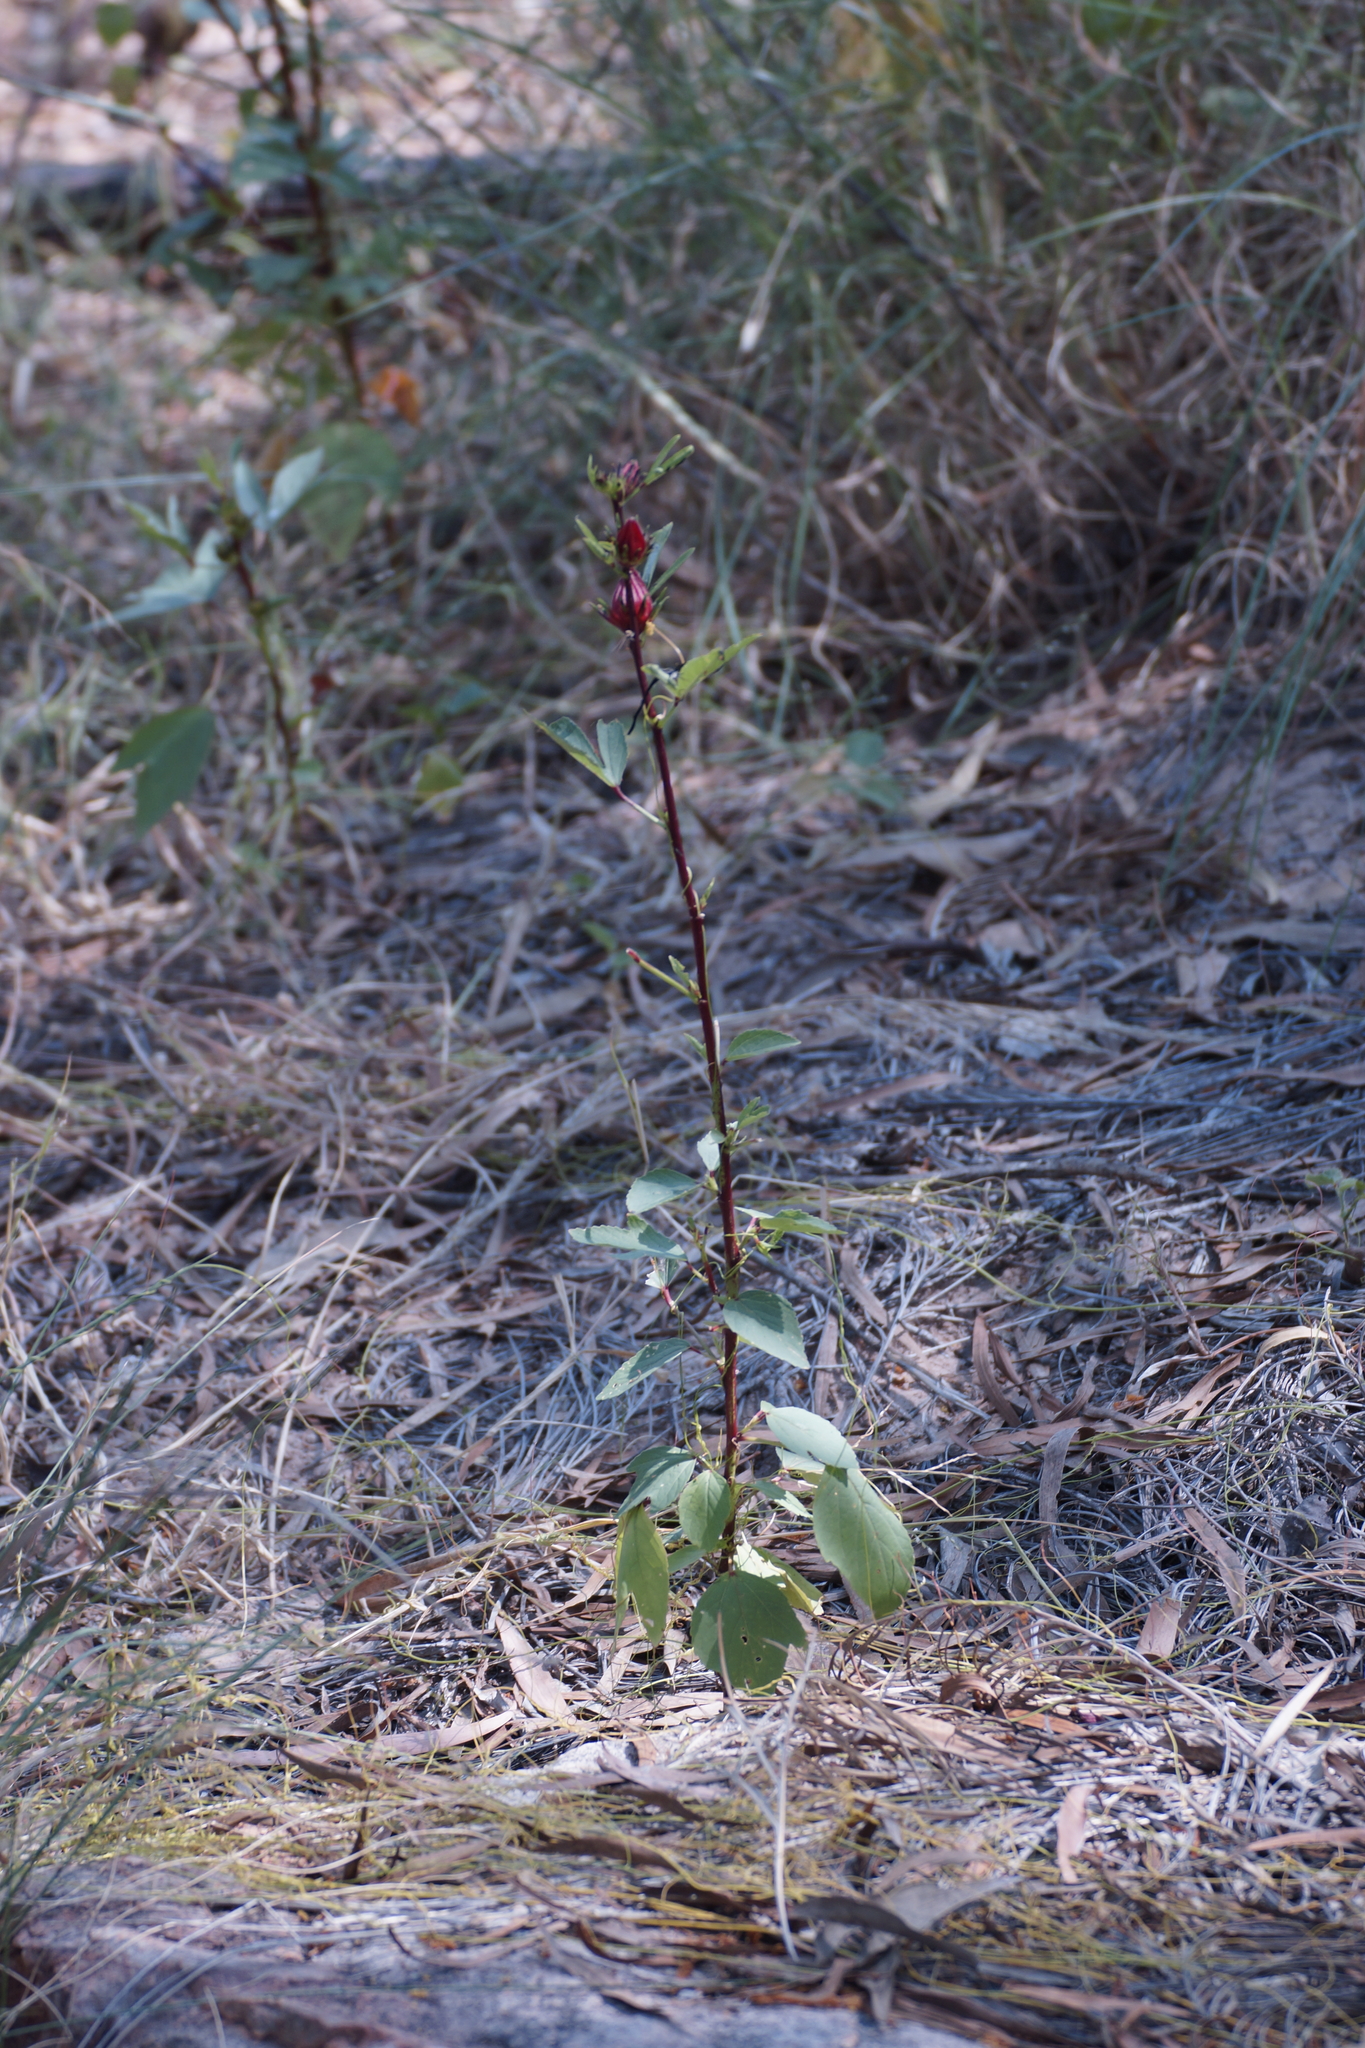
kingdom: Plantae
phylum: Tracheophyta
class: Magnoliopsida
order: Malvales
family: Malvaceae
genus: Hibiscus
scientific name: Hibiscus sabdariffa
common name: Roselle
